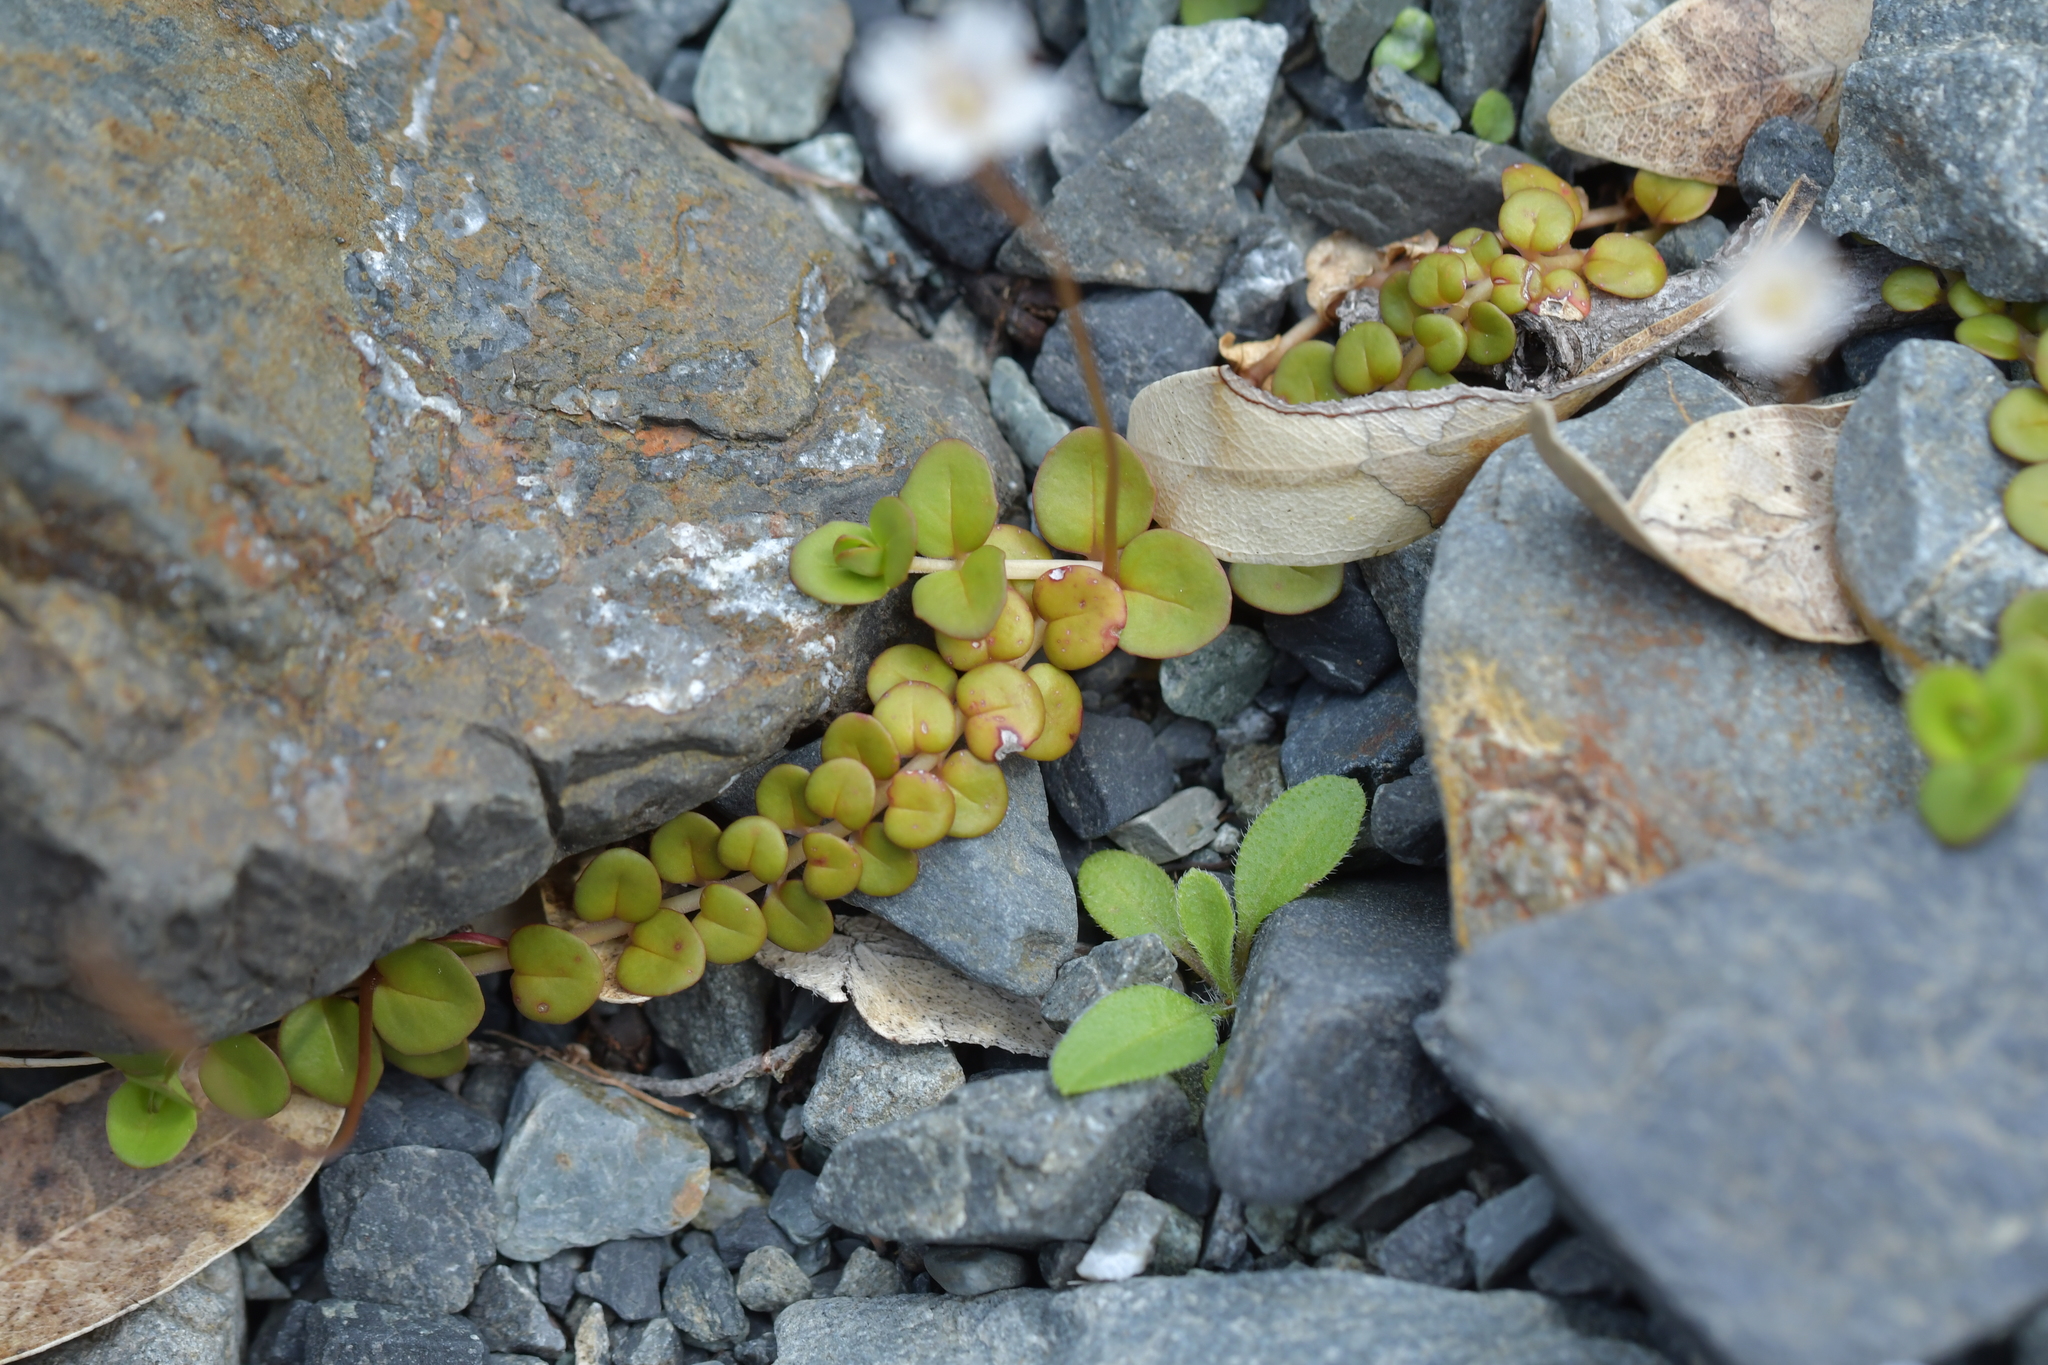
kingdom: Plantae
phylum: Tracheophyta
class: Magnoliopsida
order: Myrtales
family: Onagraceae
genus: Epilobium
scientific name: Epilobium brunnescens
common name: New zealand willowherb
